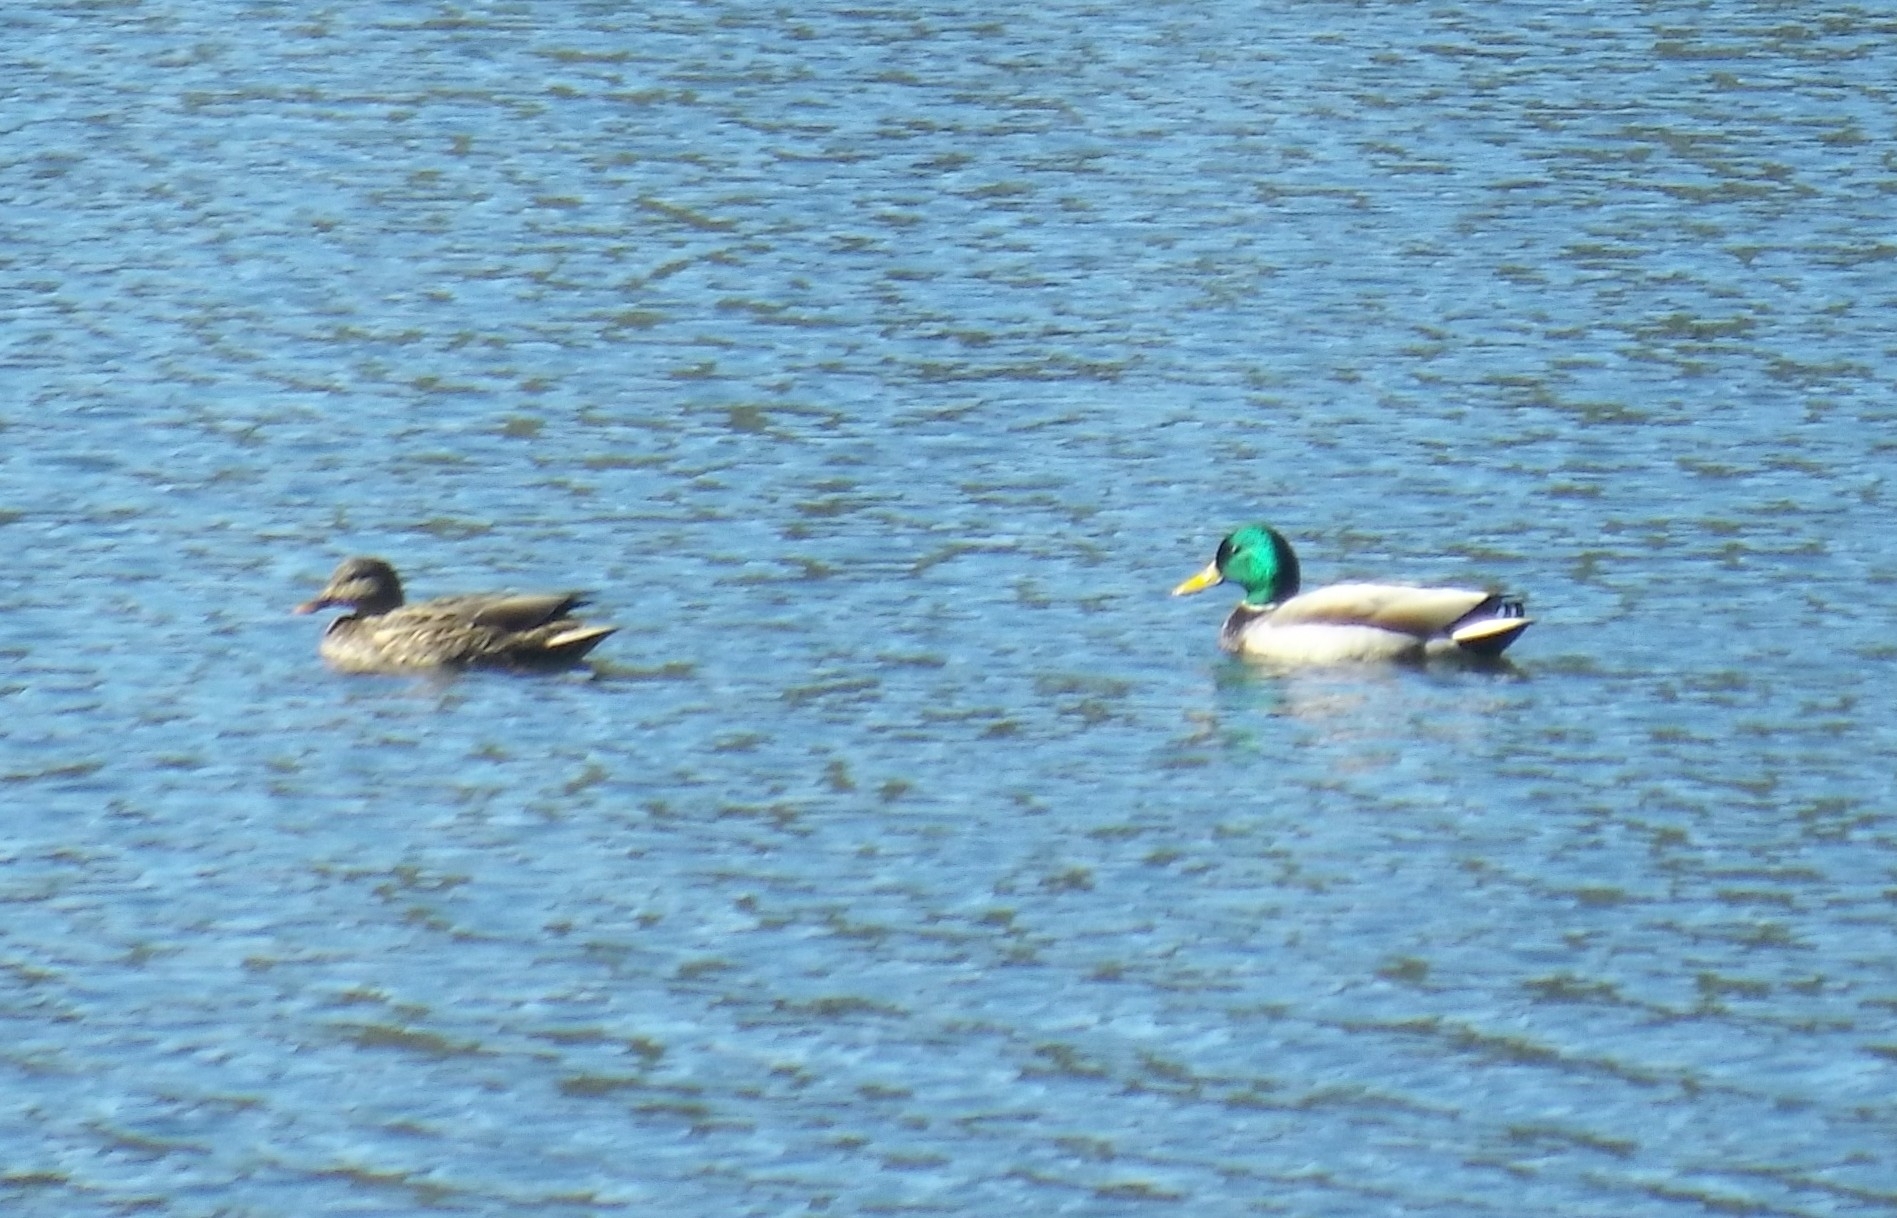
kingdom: Animalia
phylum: Chordata
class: Aves
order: Anseriformes
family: Anatidae
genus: Anas
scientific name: Anas platyrhynchos
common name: Mallard
